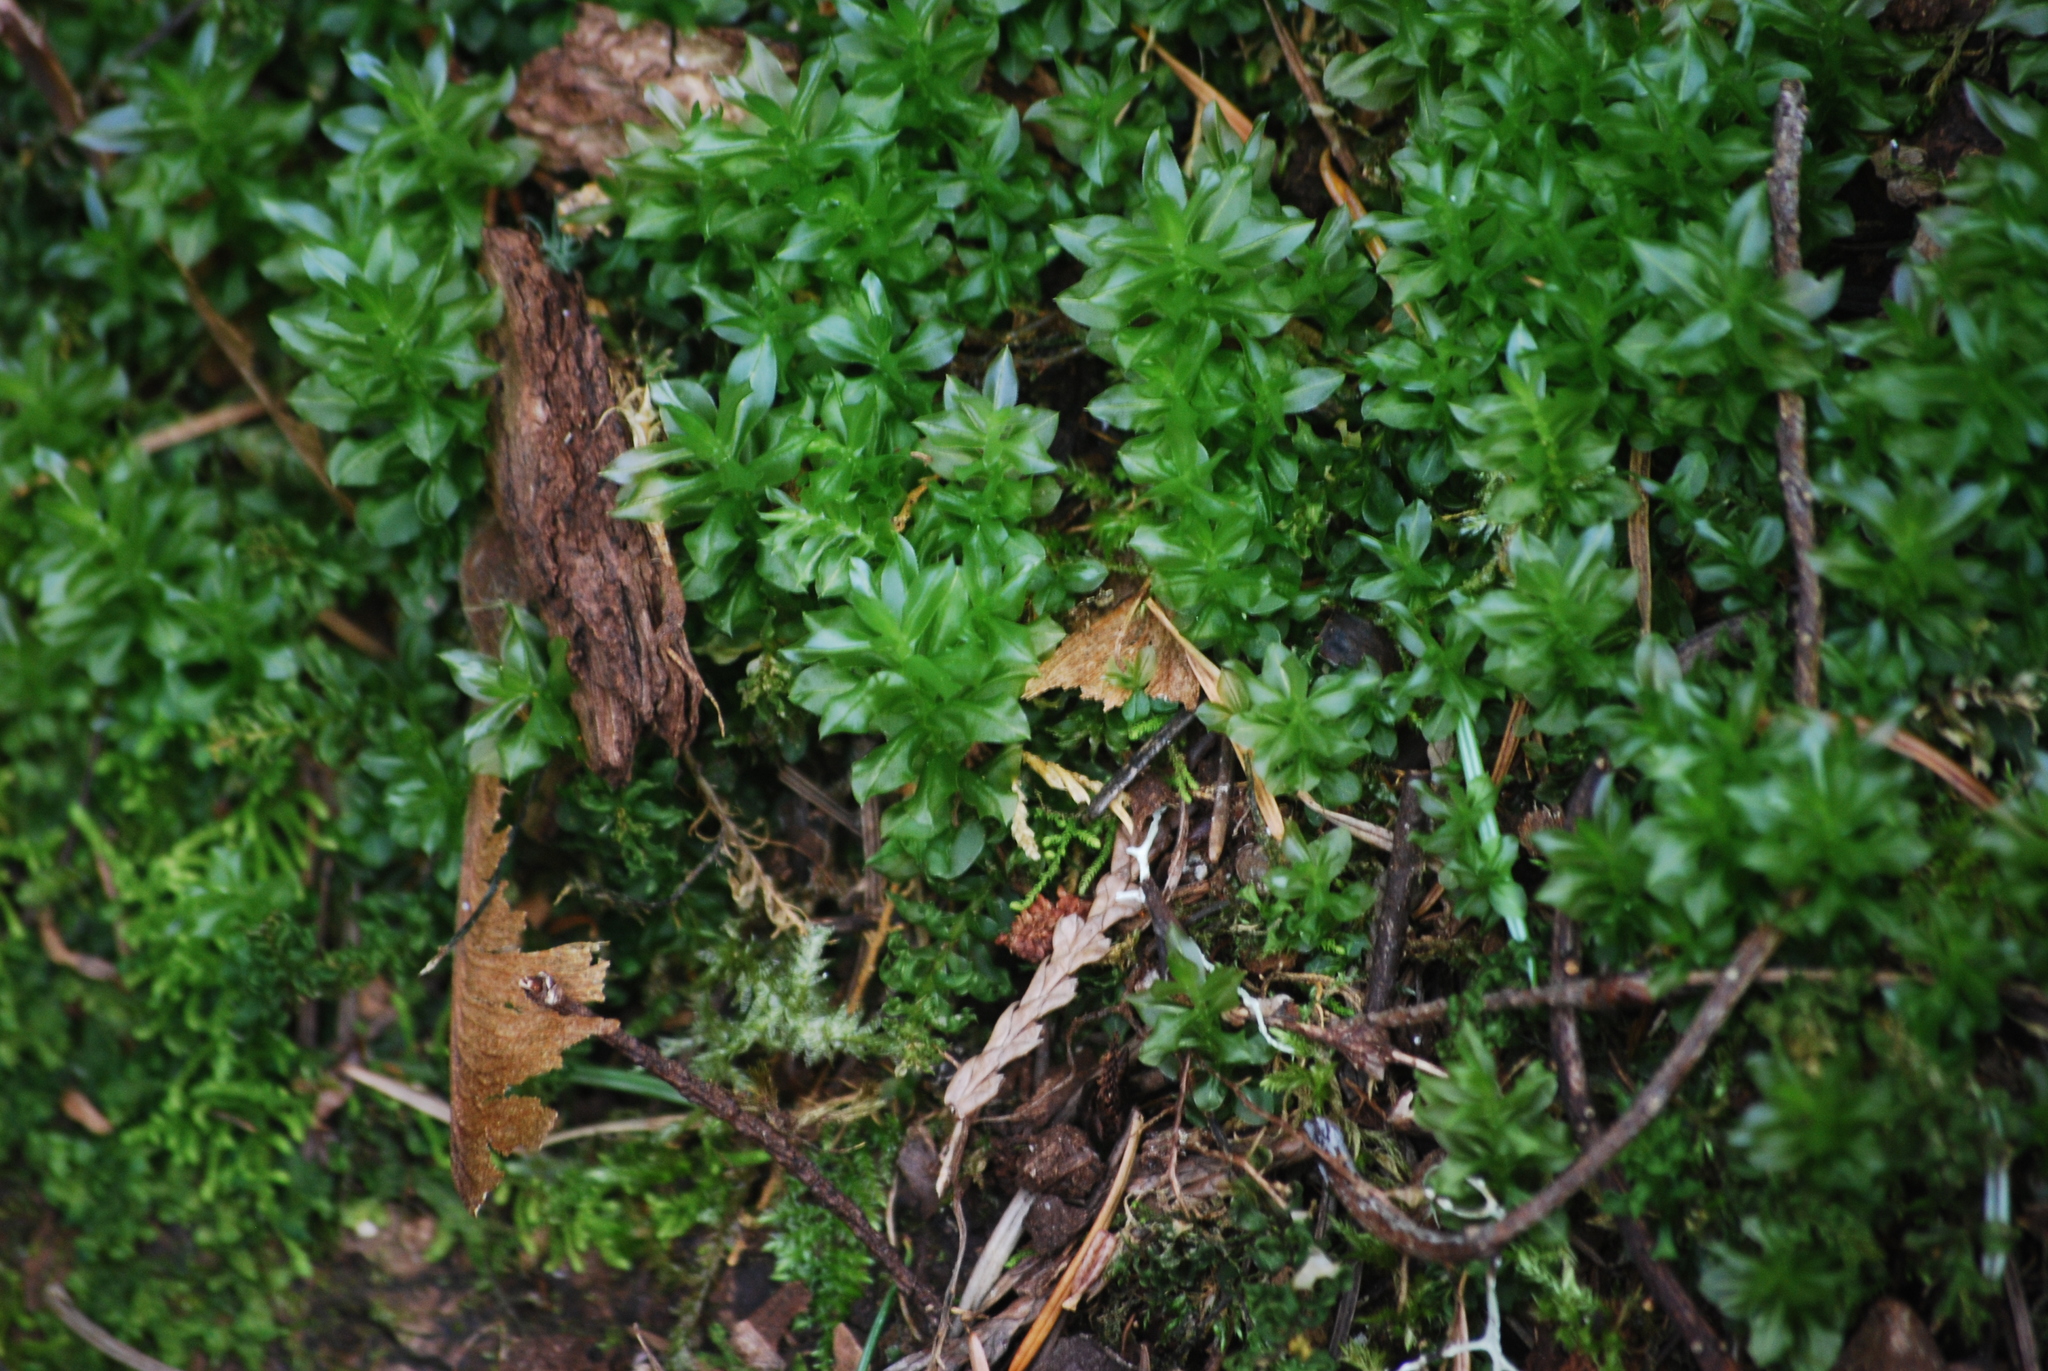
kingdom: Plantae
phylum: Bryophyta
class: Bryopsida
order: Bryales
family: Mniaceae
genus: Plagiomnium
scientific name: Plagiomnium insigne
